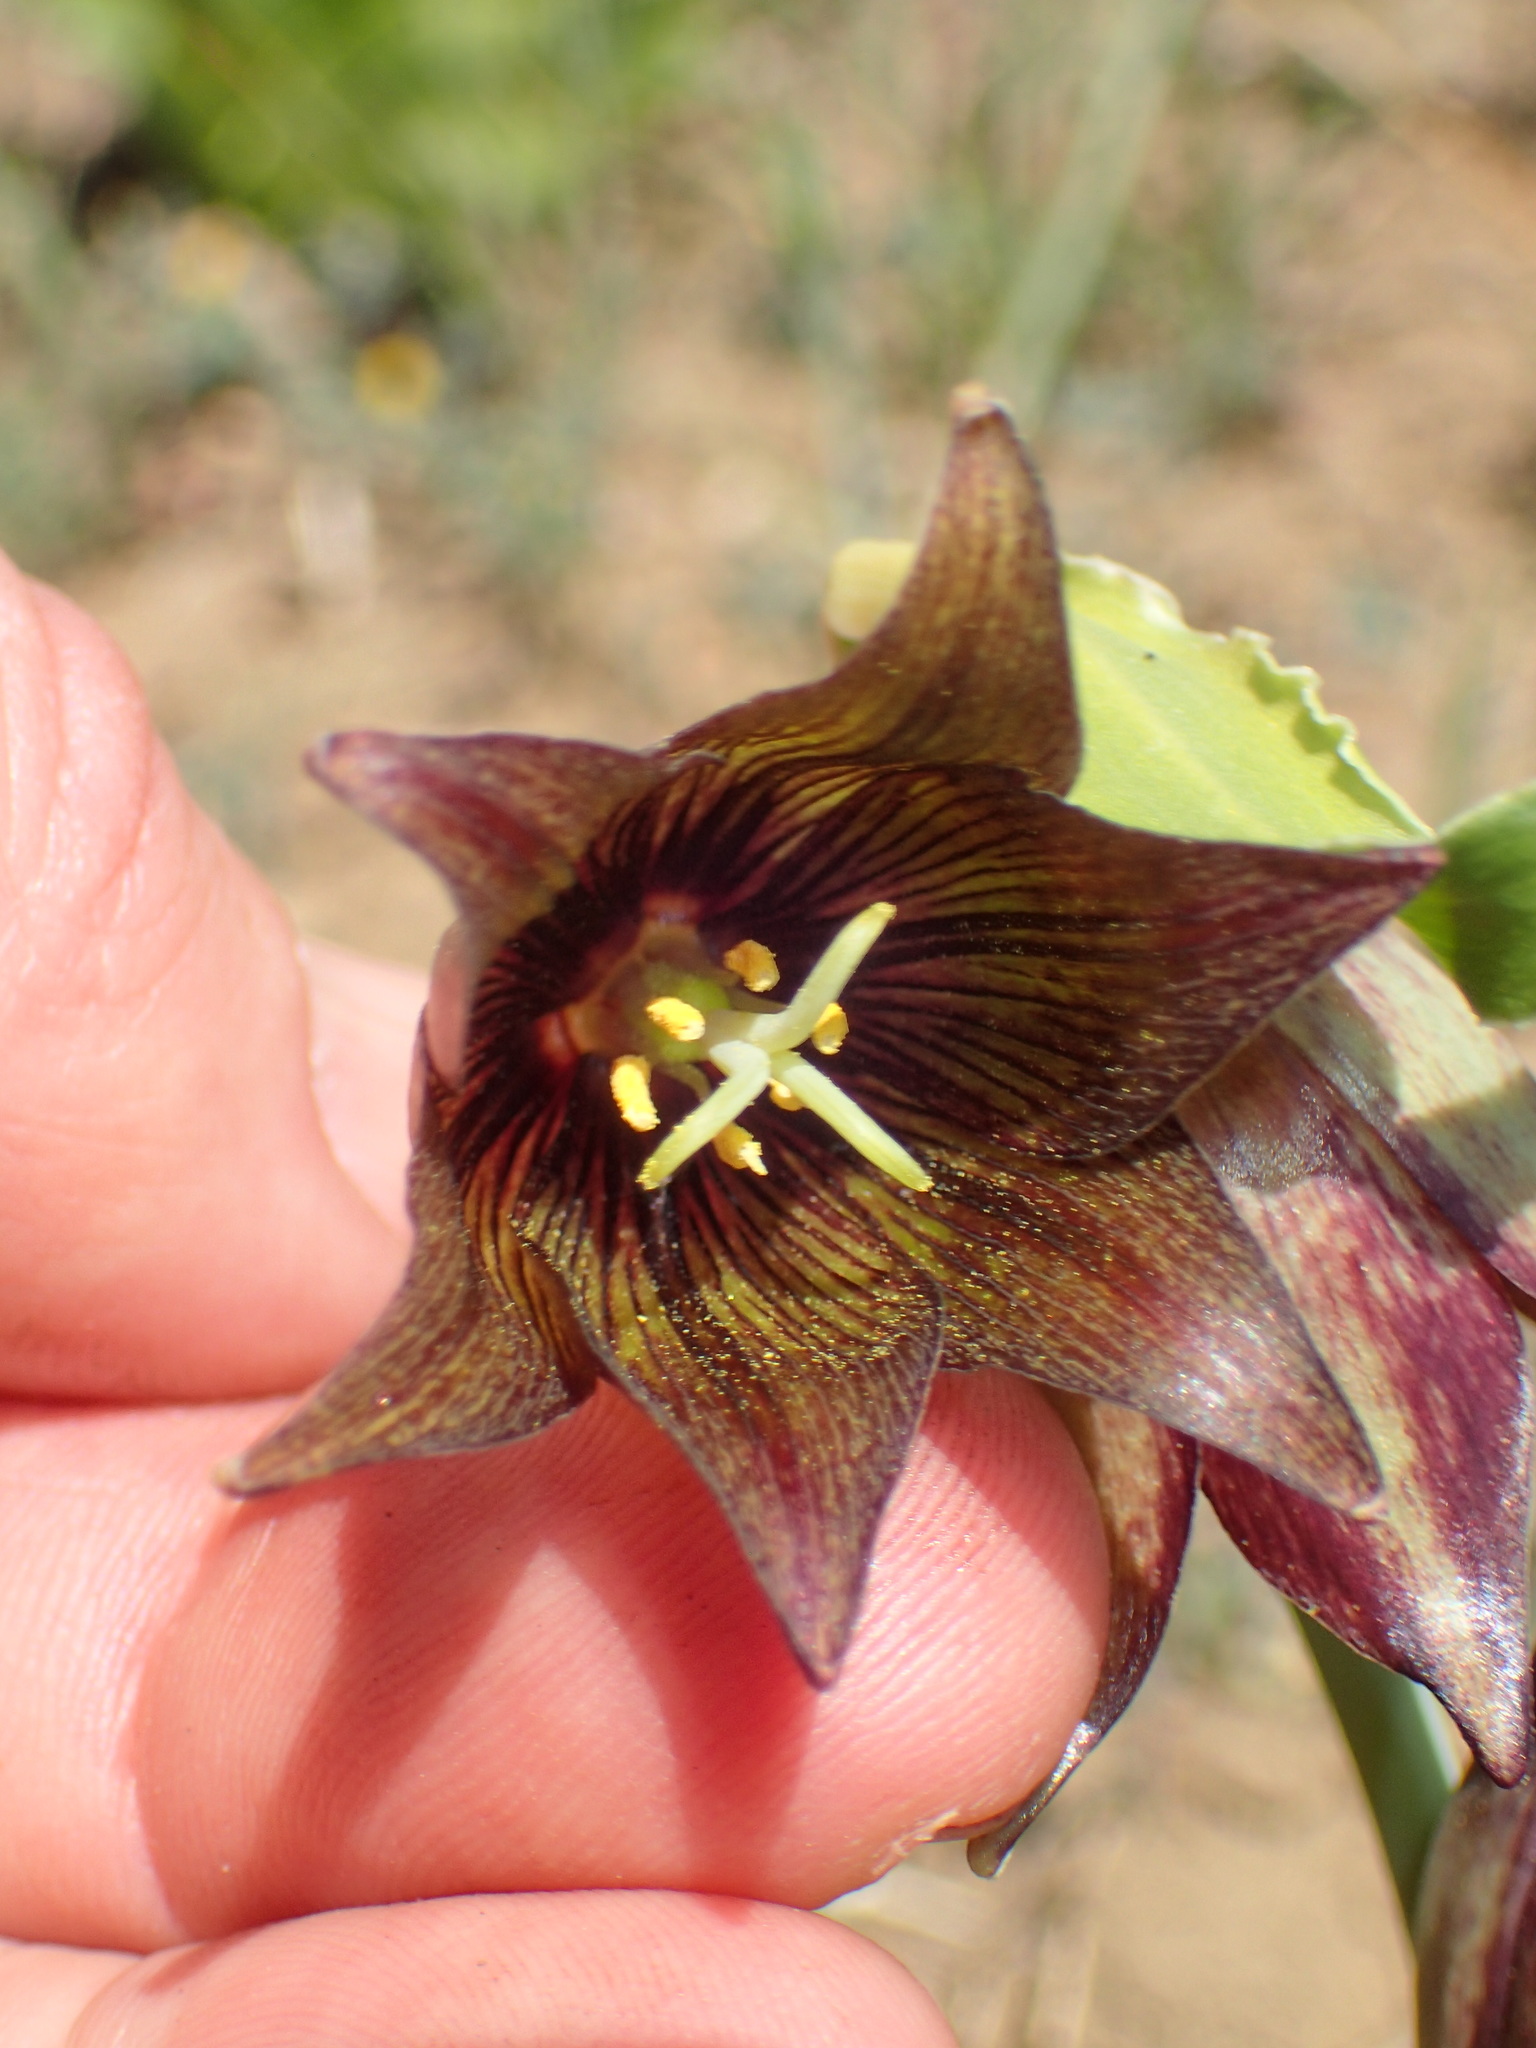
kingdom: Plantae
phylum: Tracheophyta
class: Liliopsida
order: Liliales
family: Liliaceae
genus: Fritillaria
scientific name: Fritillaria biflora
